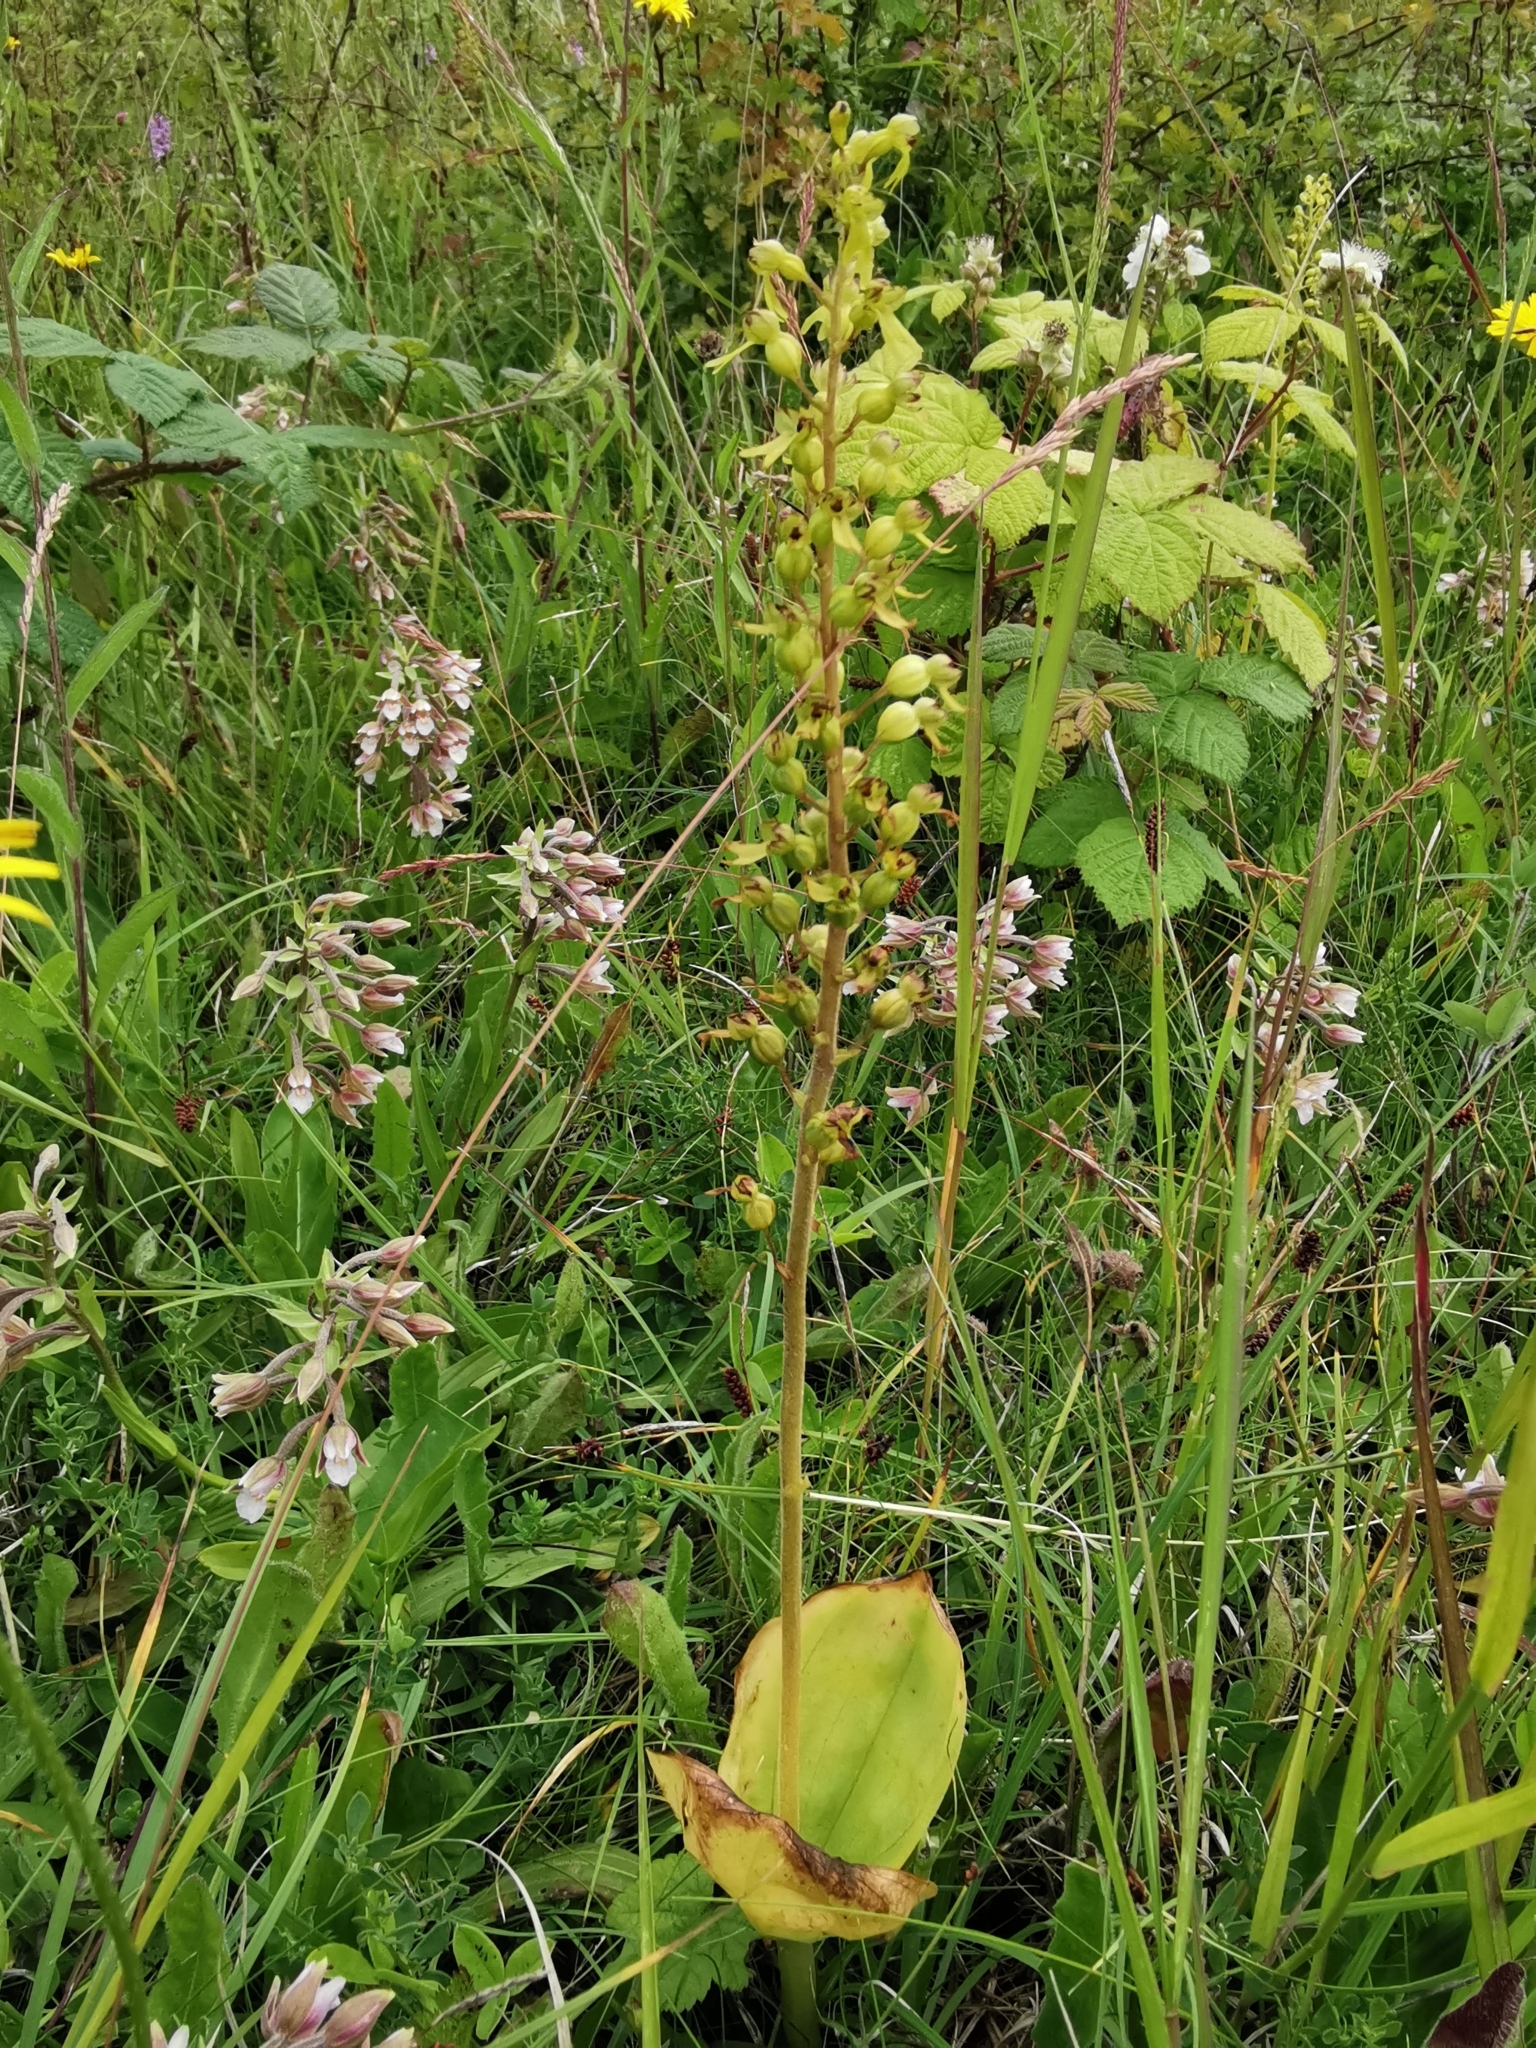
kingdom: Plantae
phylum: Tracheophyta
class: Liliopsida
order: Asparagales
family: Orchidaceae
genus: Neottia
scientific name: Neottia ovata
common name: Common twayblade
